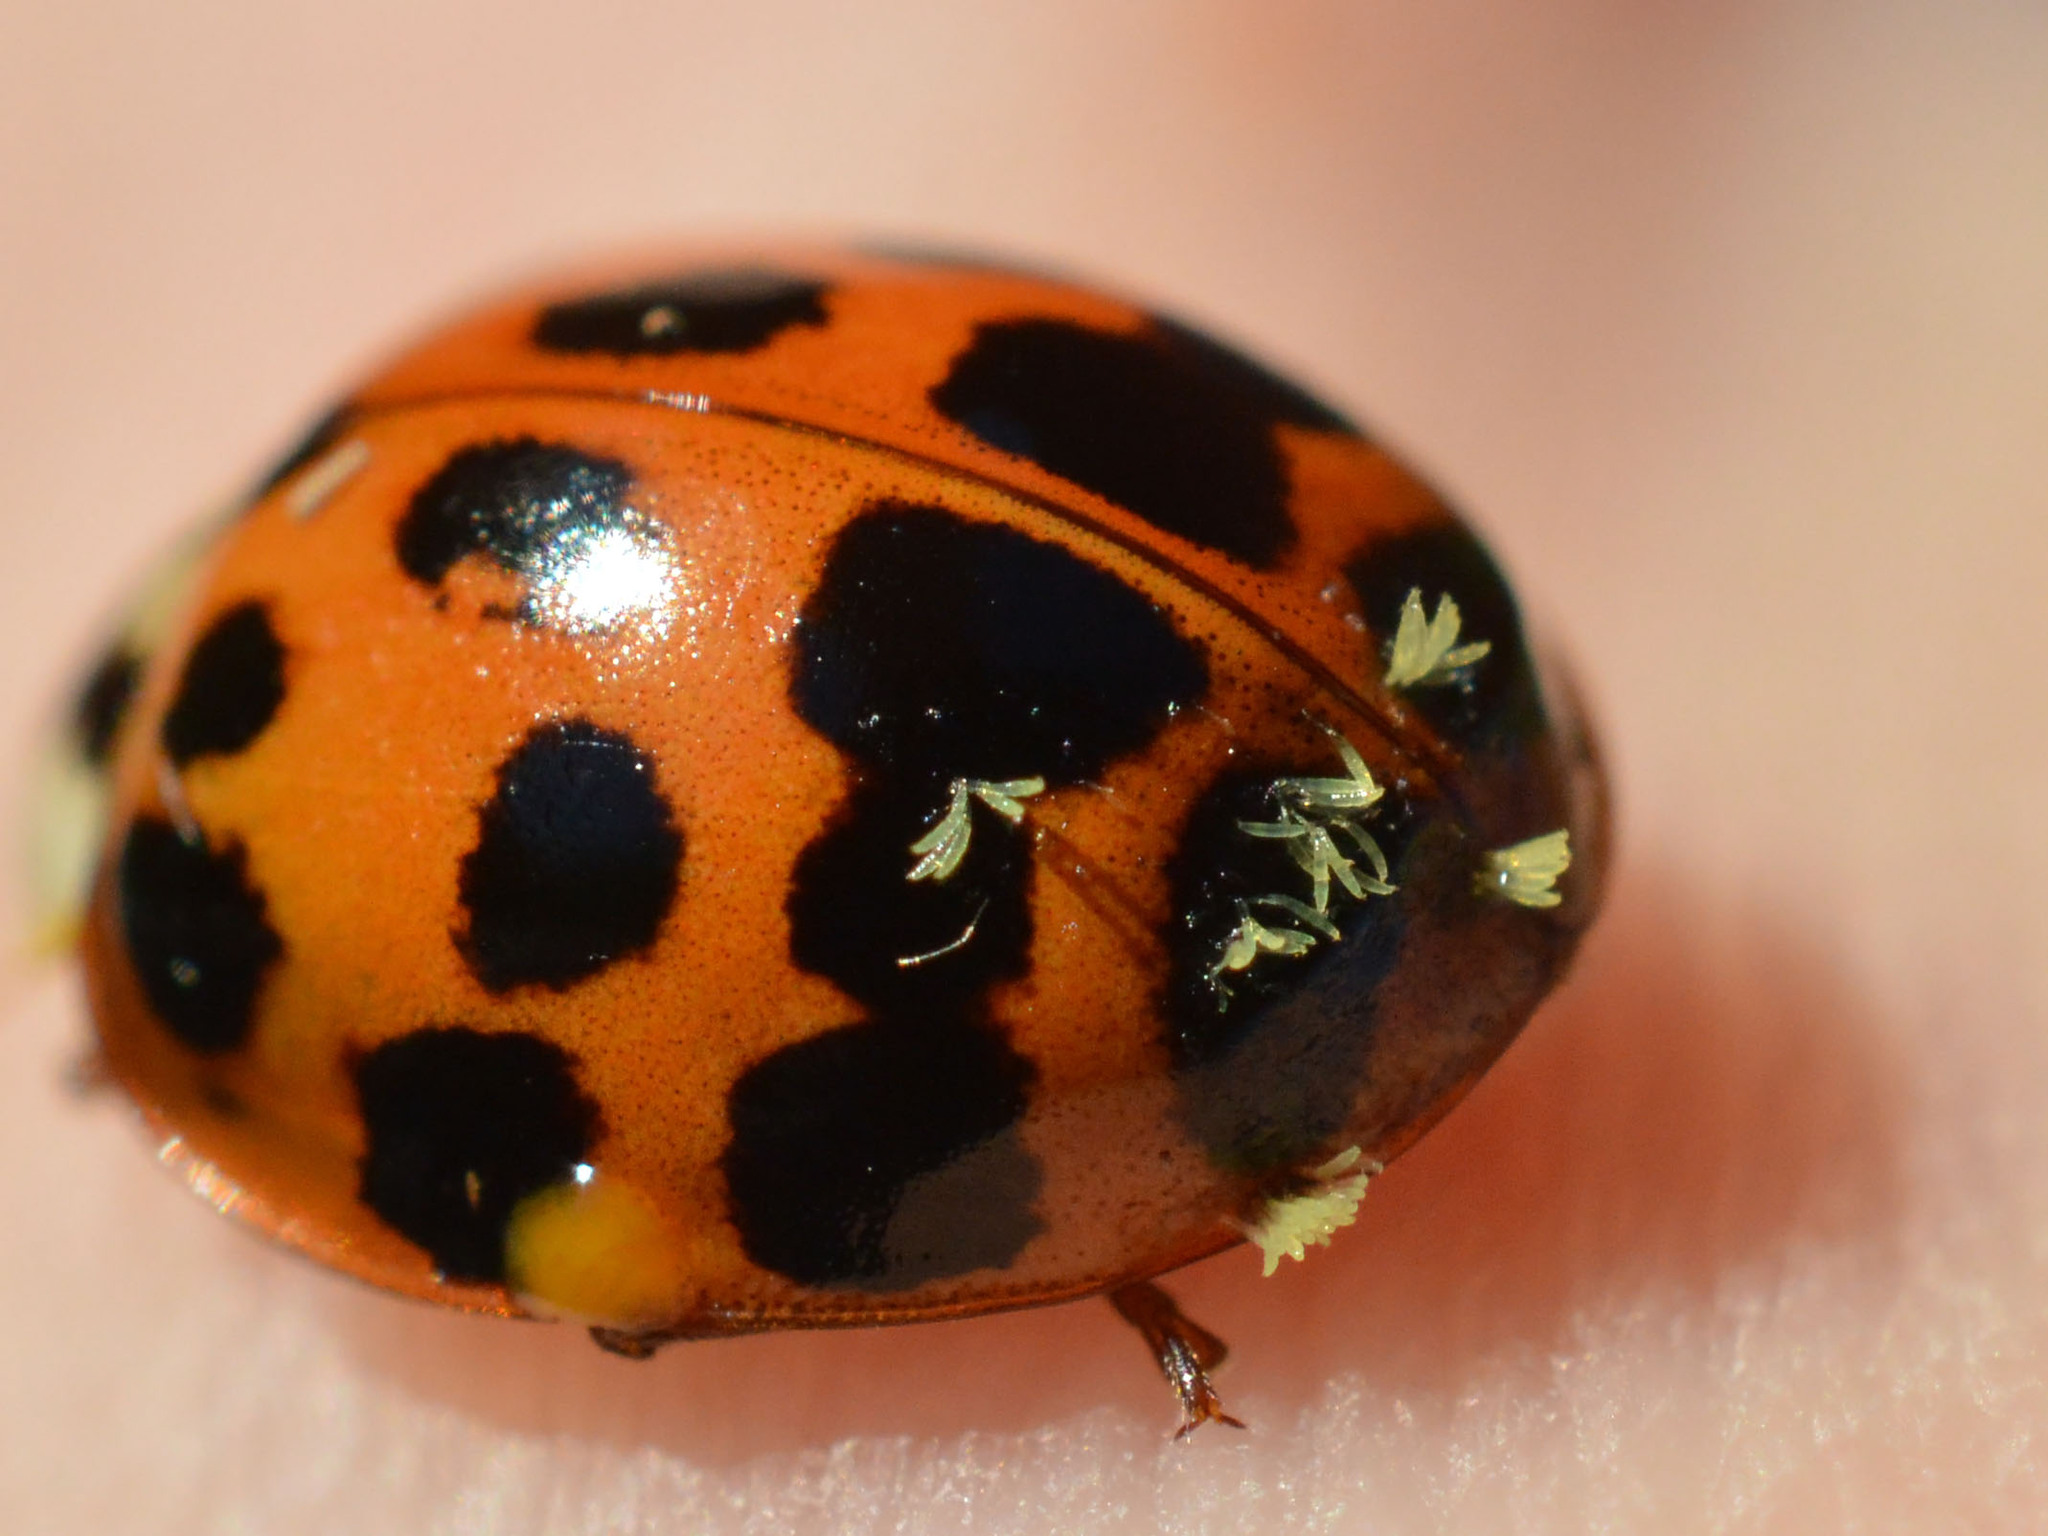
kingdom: Fungi
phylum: Ascomycota
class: Laboulbeniomycetes
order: Laboulbeniales
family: Laboulbeniaceae
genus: Hesperomyces
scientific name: Hesperomyces harmoniae
